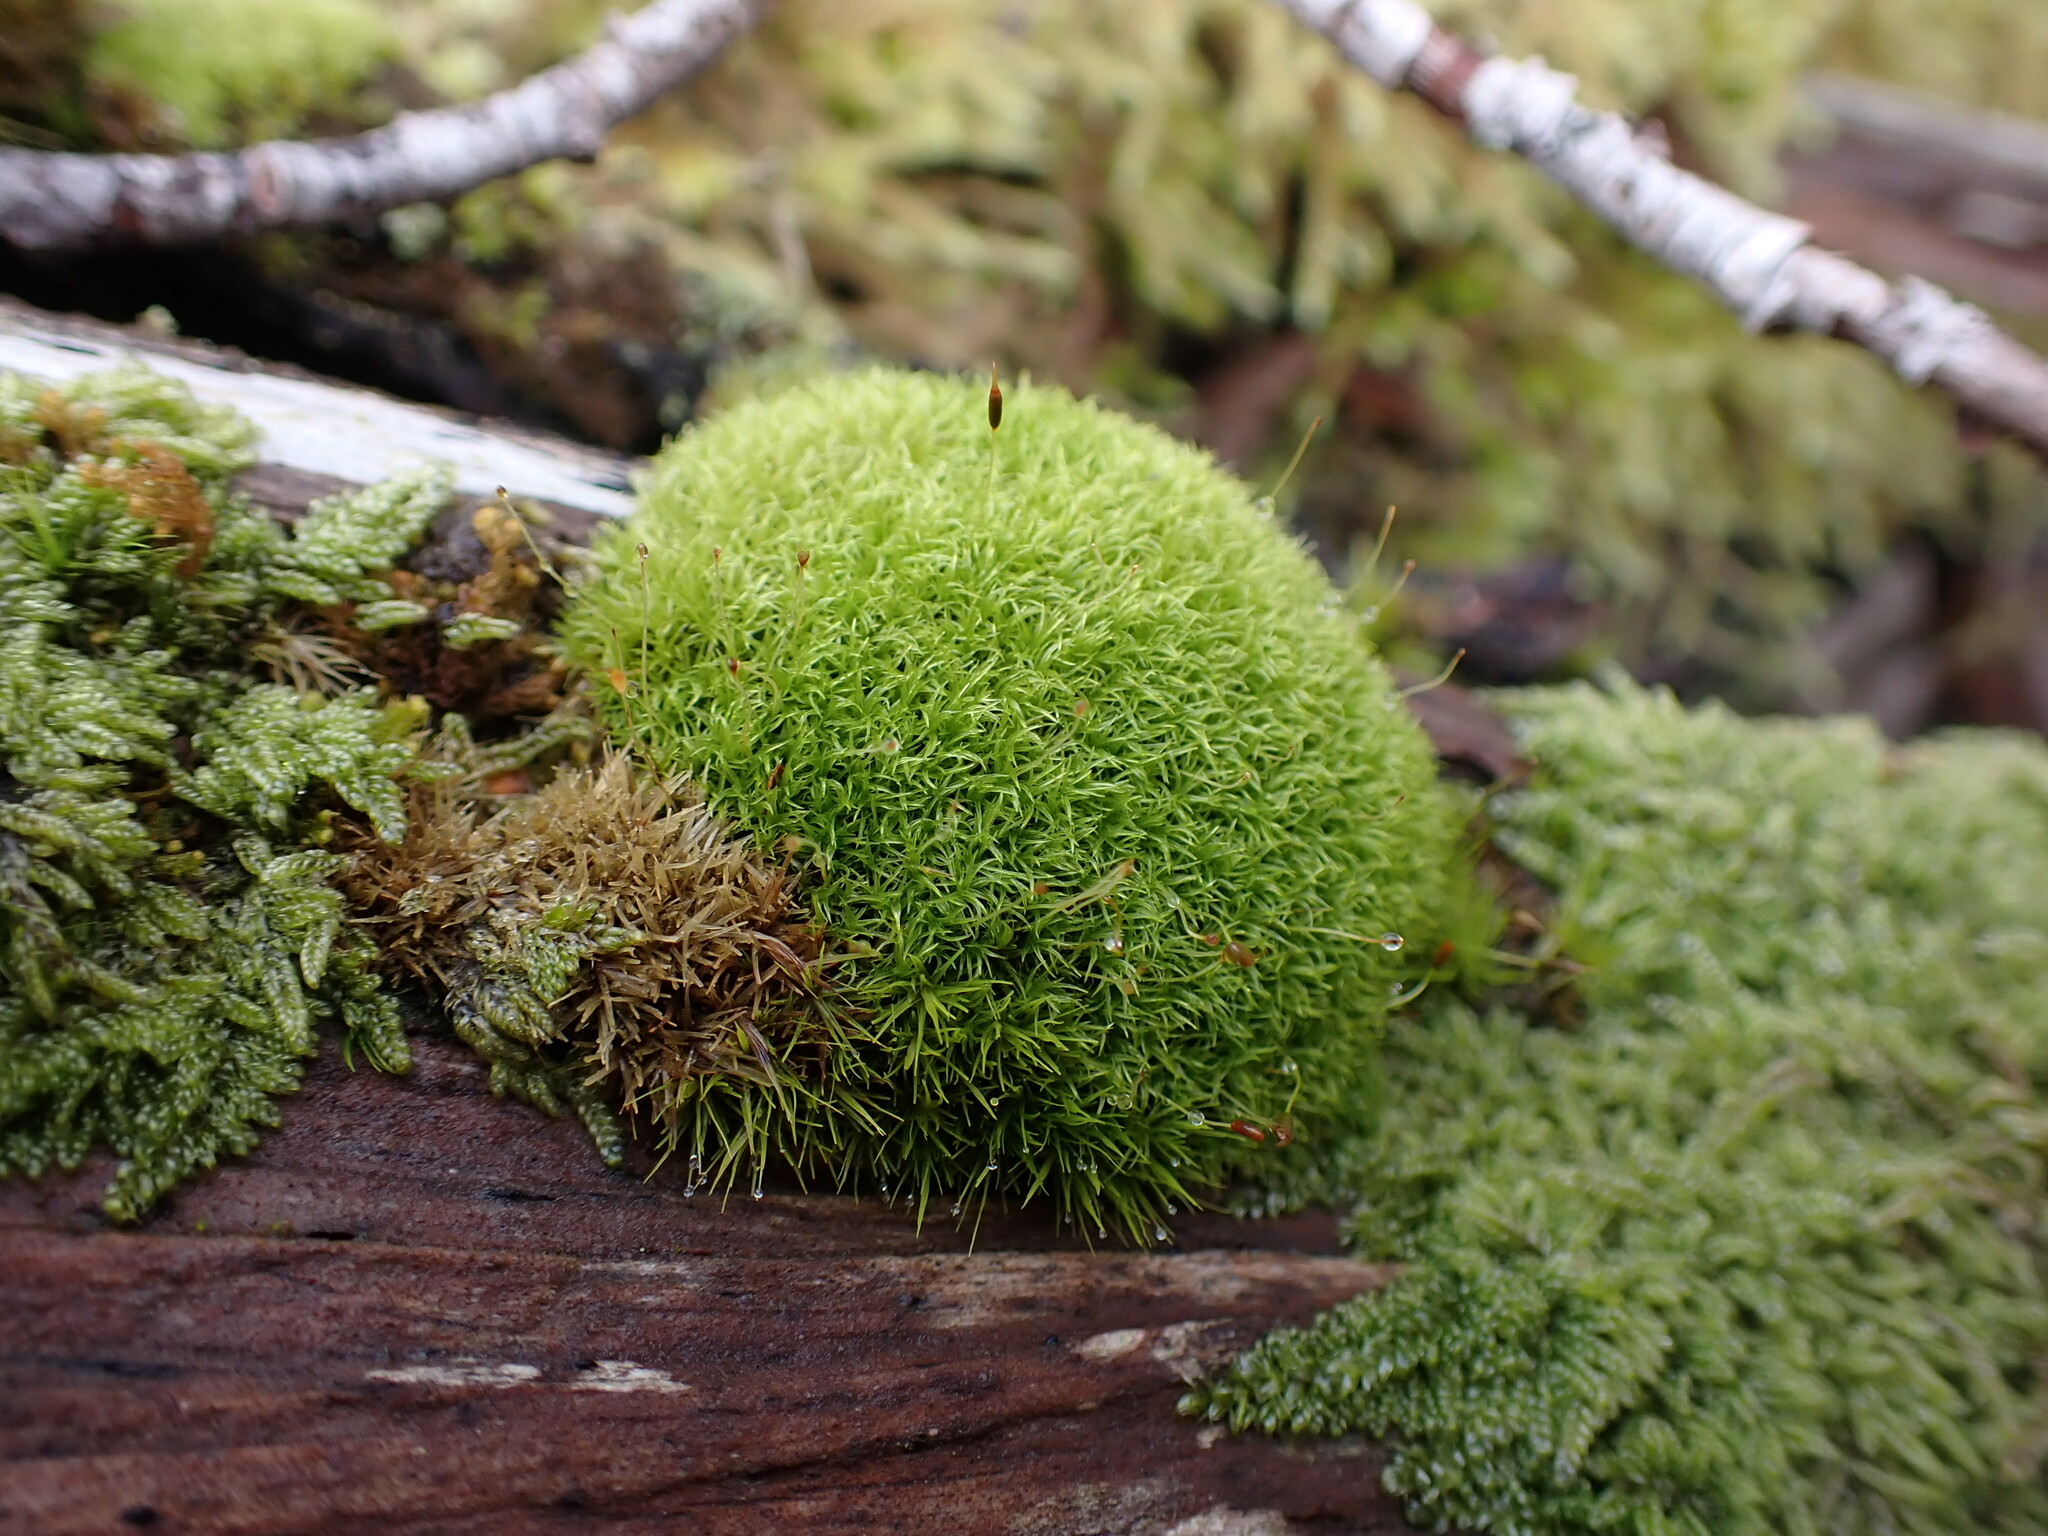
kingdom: Plantae
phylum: Bryophyta
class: Bryopsida
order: Dicranales
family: Rhabdoweisiaceae
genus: Dicranoweisia
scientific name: Dicranoweisia cirrata
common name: Common pincushion
